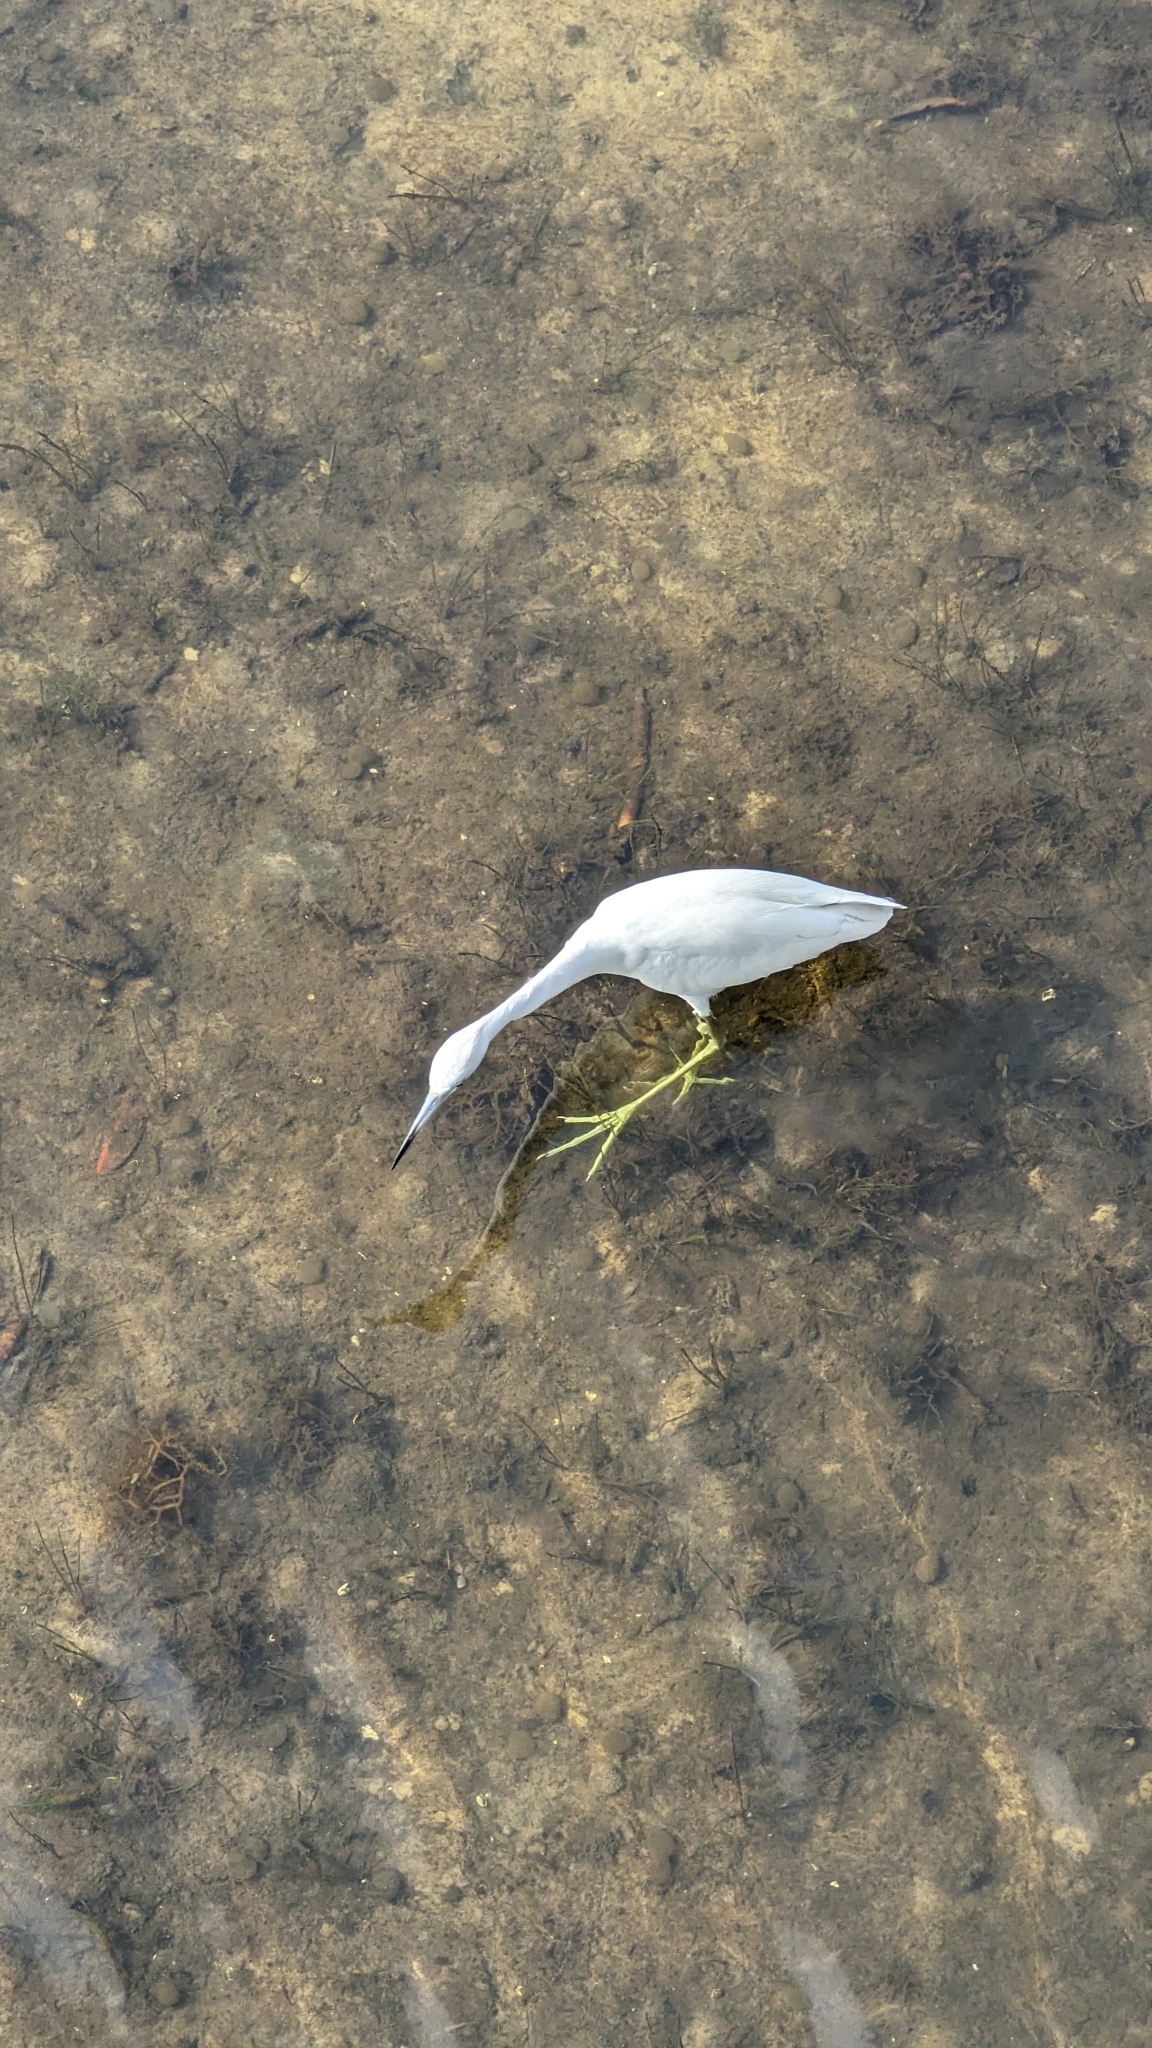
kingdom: Animalia
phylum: Chordata
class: Aves
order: Pelecaniformes
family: Ardeidae
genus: Egretta
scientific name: Egretta caerulea
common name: Little blue heron
